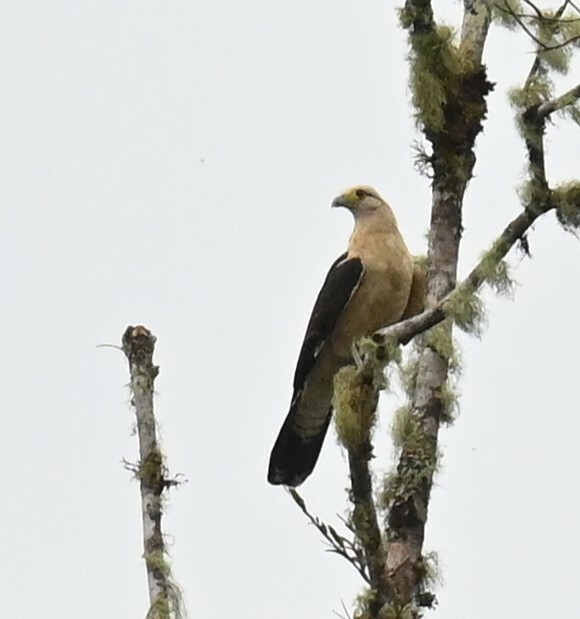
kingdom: Animalia
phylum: Chordata
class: Aves
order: Falconiformes
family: Falconidae
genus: Daptrius
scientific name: Daptrius
